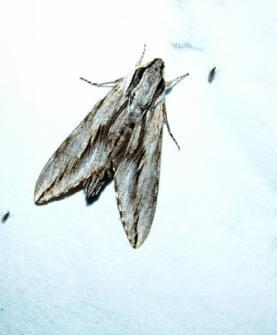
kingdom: Animalia
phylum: Arthropoda
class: Insecta
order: Lepidoptera
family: Sphingidae
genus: Sphinx
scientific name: Sphinx dollii
